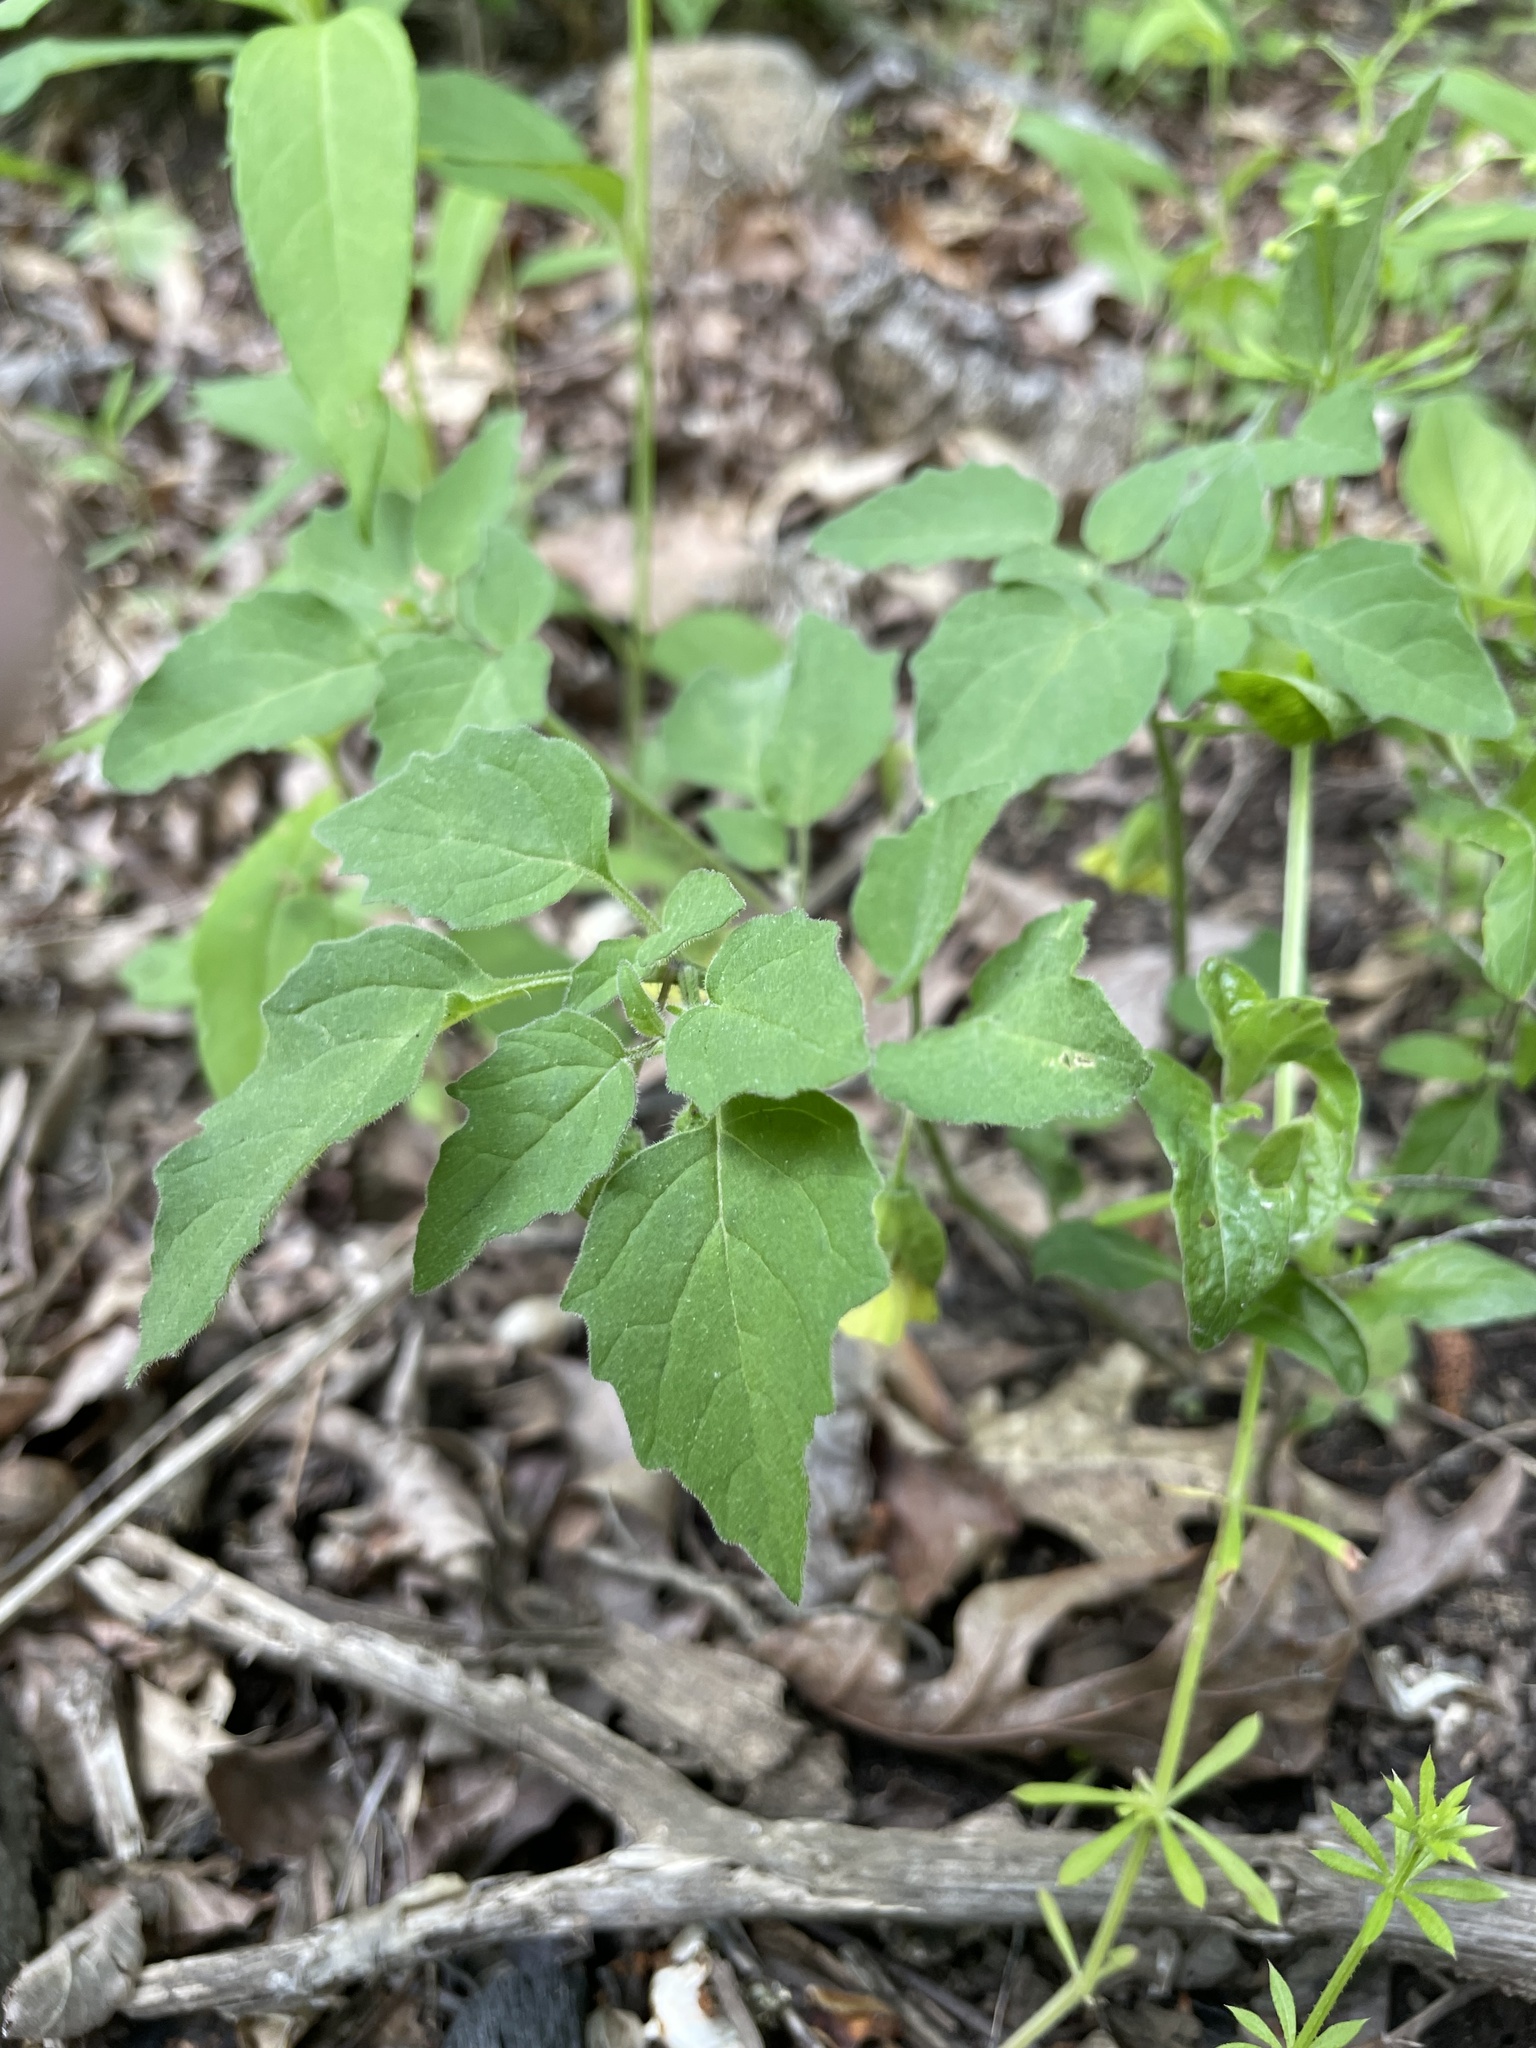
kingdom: Plantae
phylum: Tracheophyta
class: Magnoliopsida
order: Solanales
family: Solanaceae
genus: Physalis
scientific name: Physalis virginiana
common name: Virginia ground-cherry
